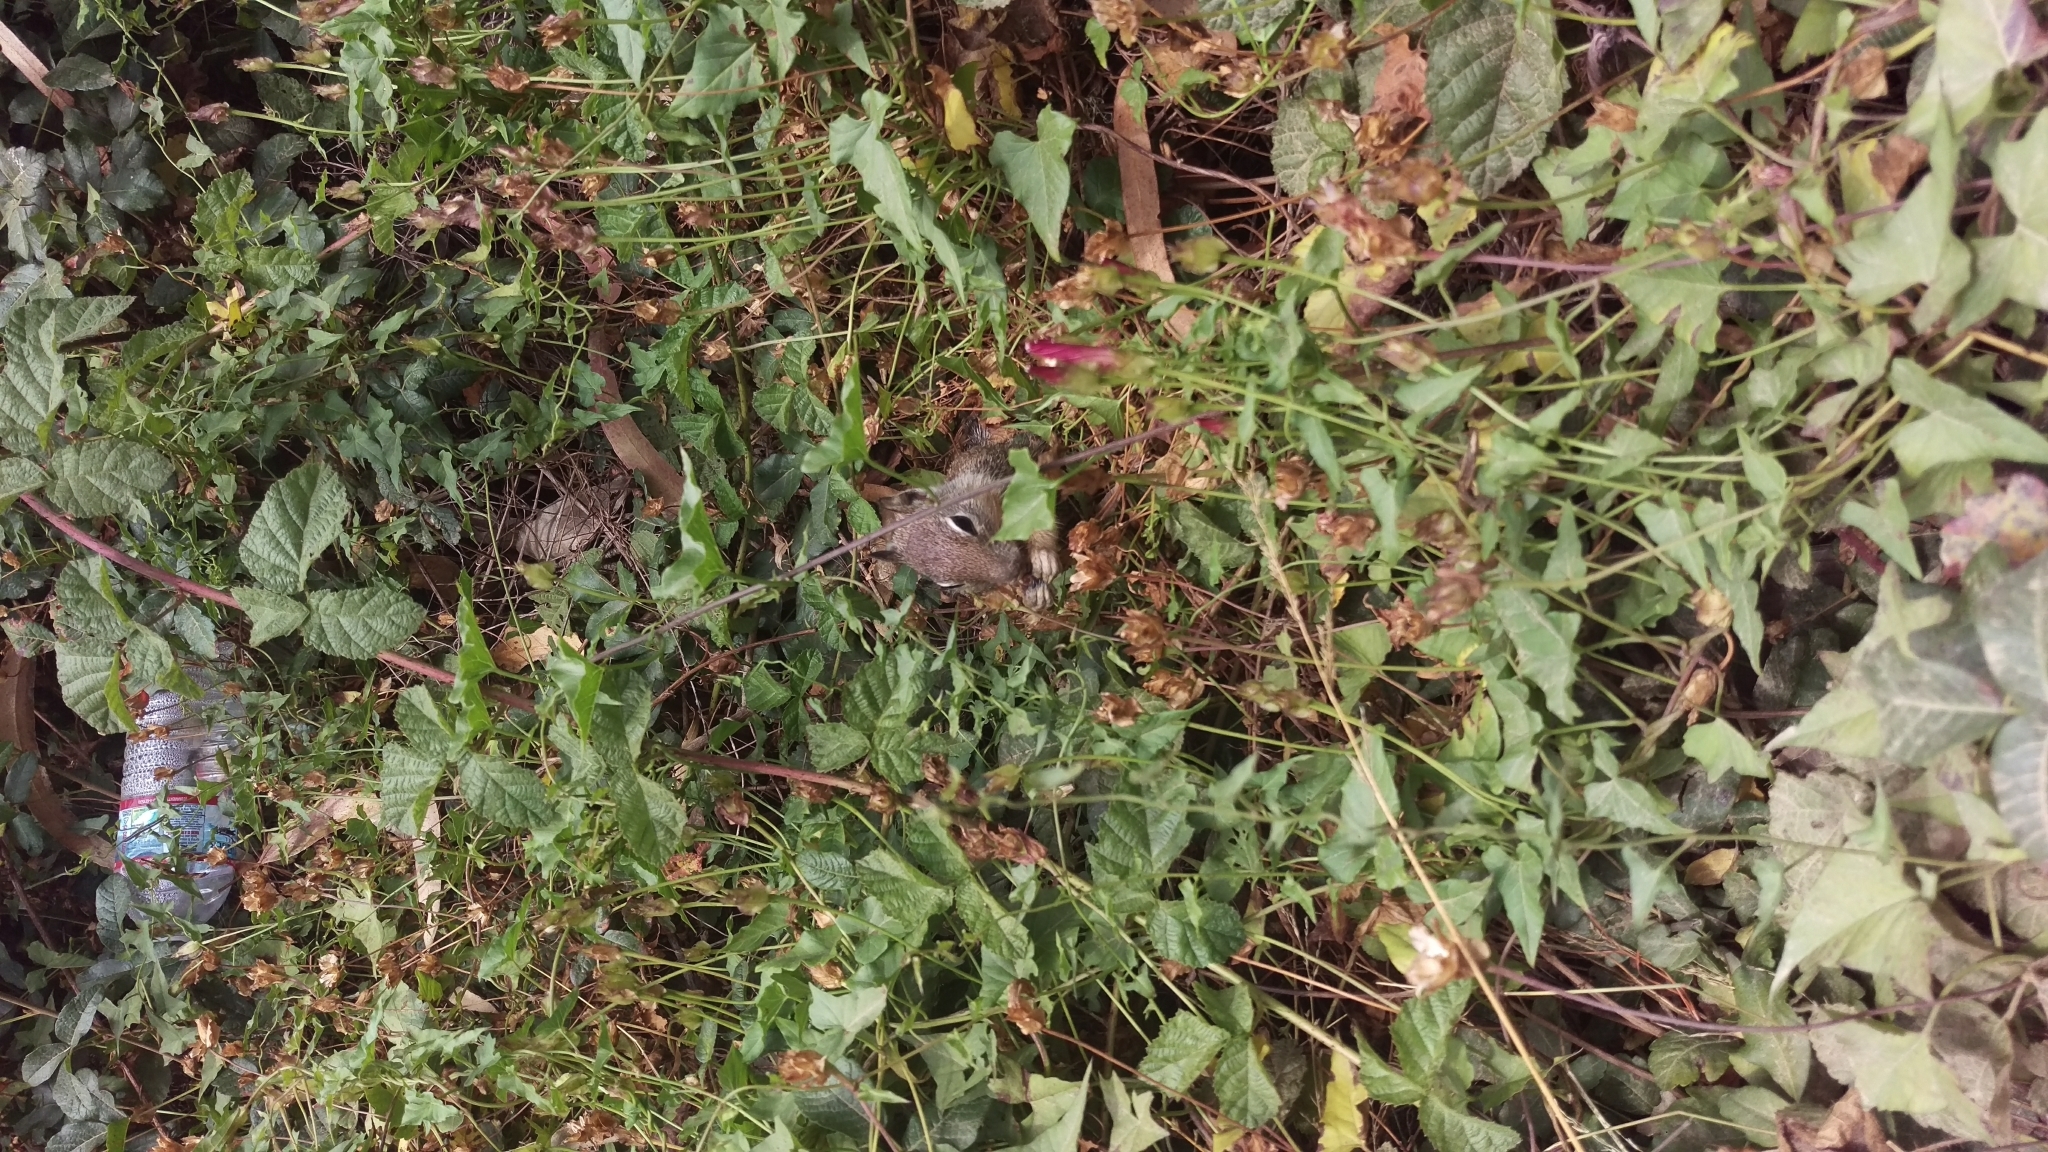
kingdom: Animalia
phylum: Chordata
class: Mammalia
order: Rodentia
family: Sciuridae
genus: Otospermophilus
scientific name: Otospermophilus beecheyi
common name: California ground squirrel
